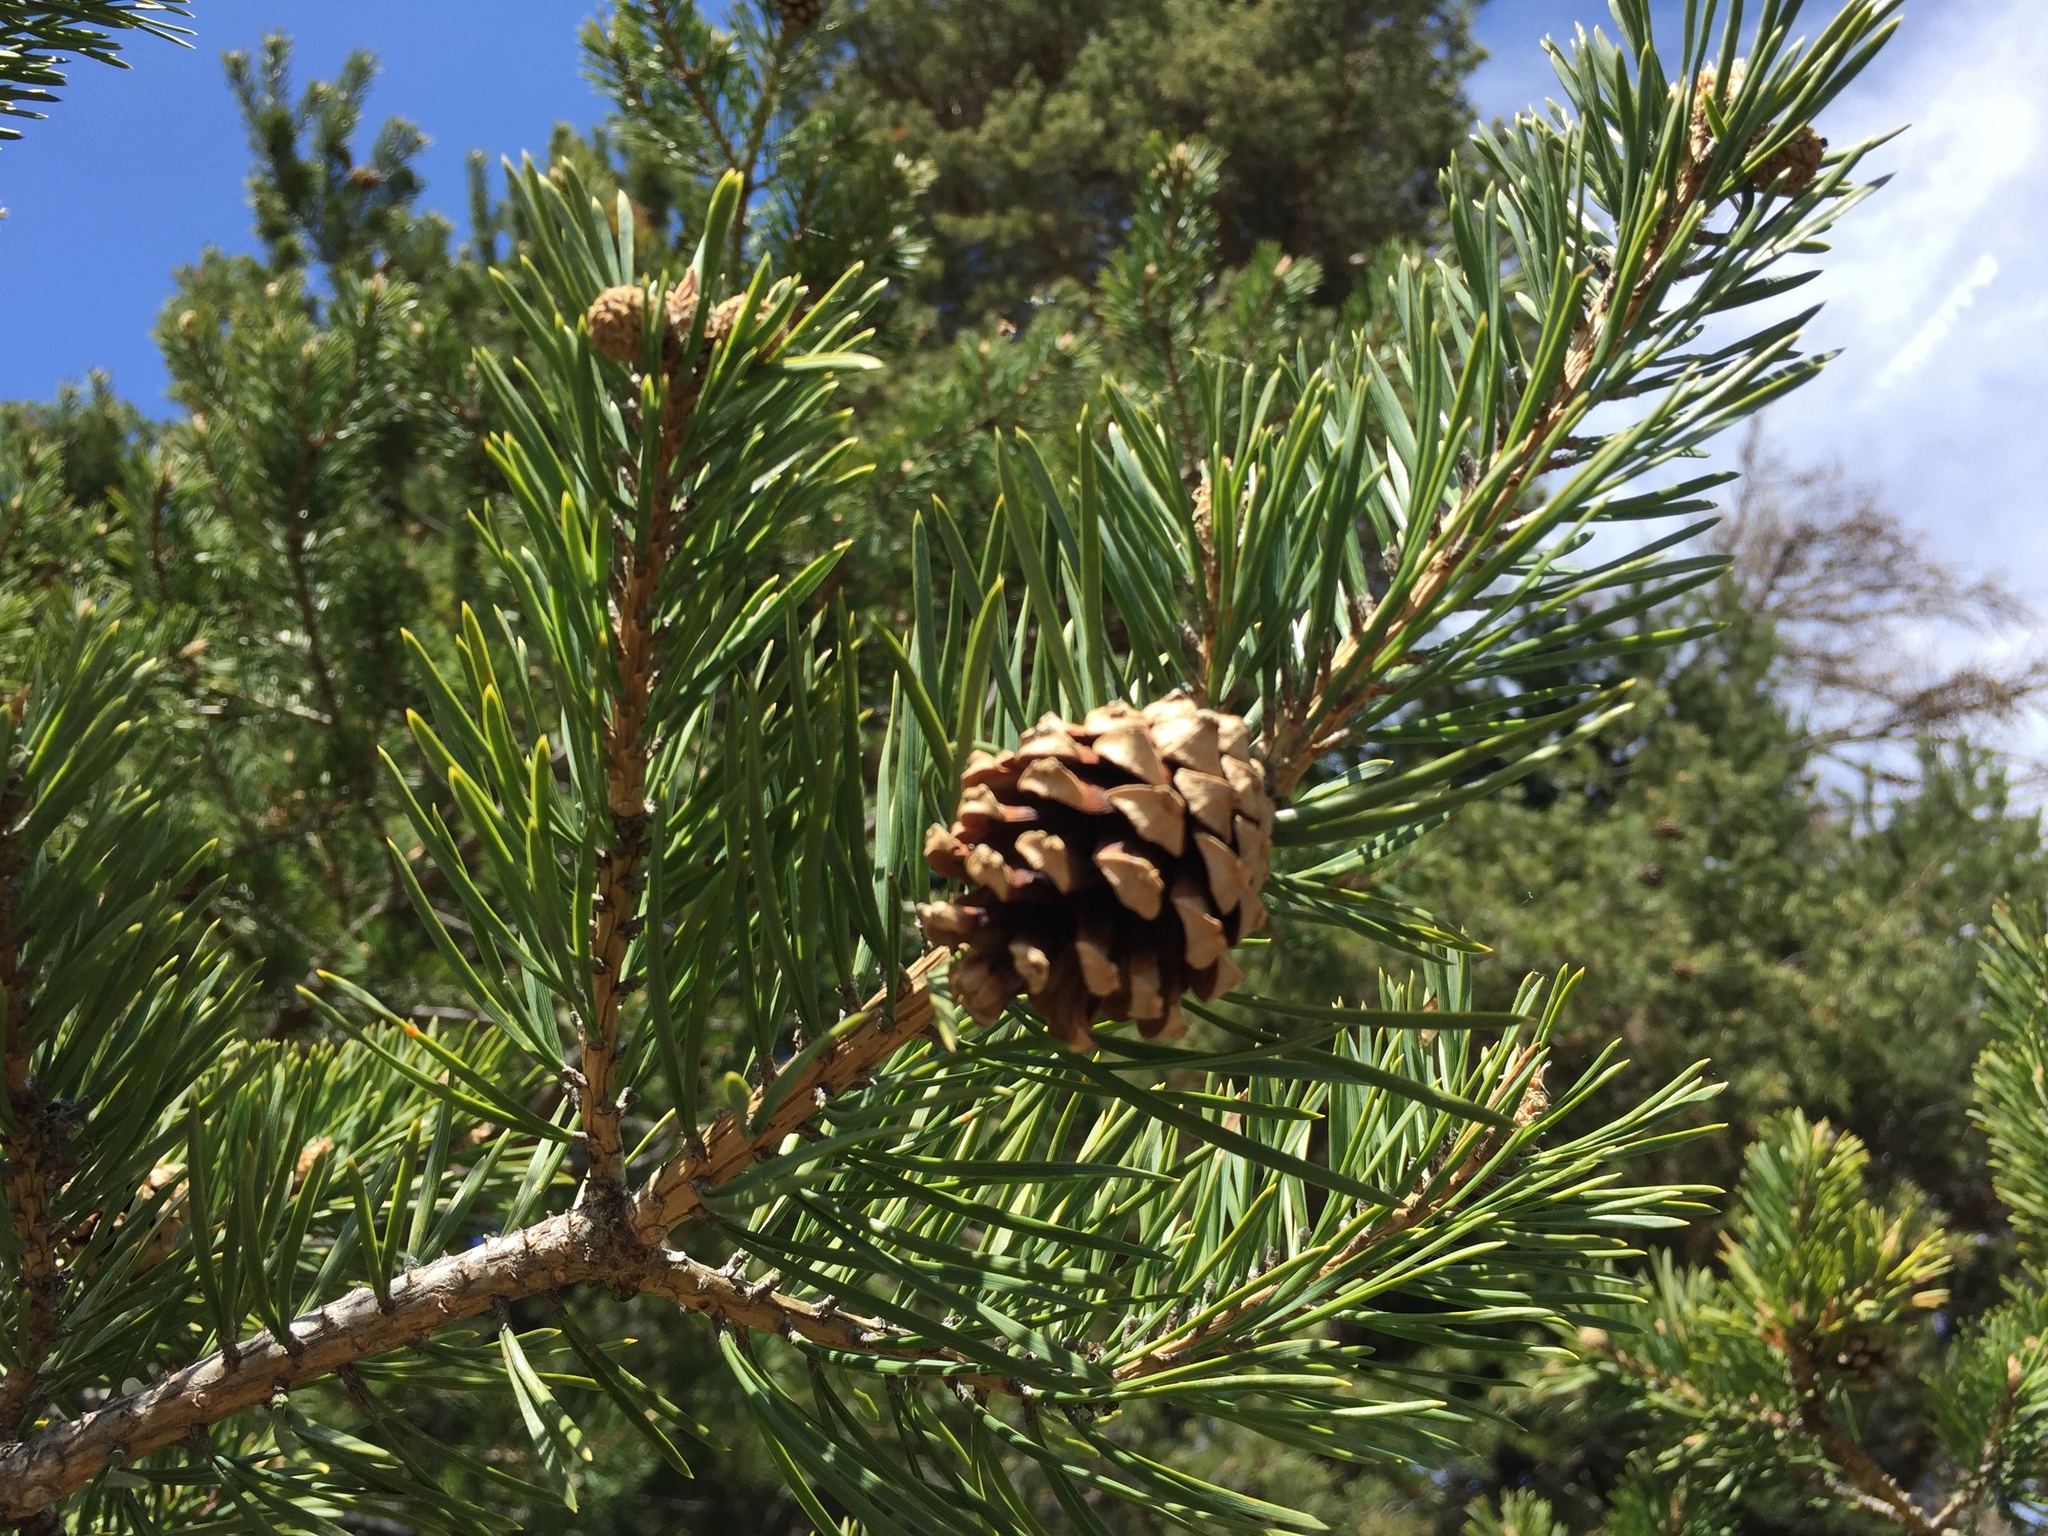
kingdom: Plantae
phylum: Tracheophyta
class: Pinopsida
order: Pinales
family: Pinaceae
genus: Pinus
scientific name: Pinus sylvestris
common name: Scots pine
